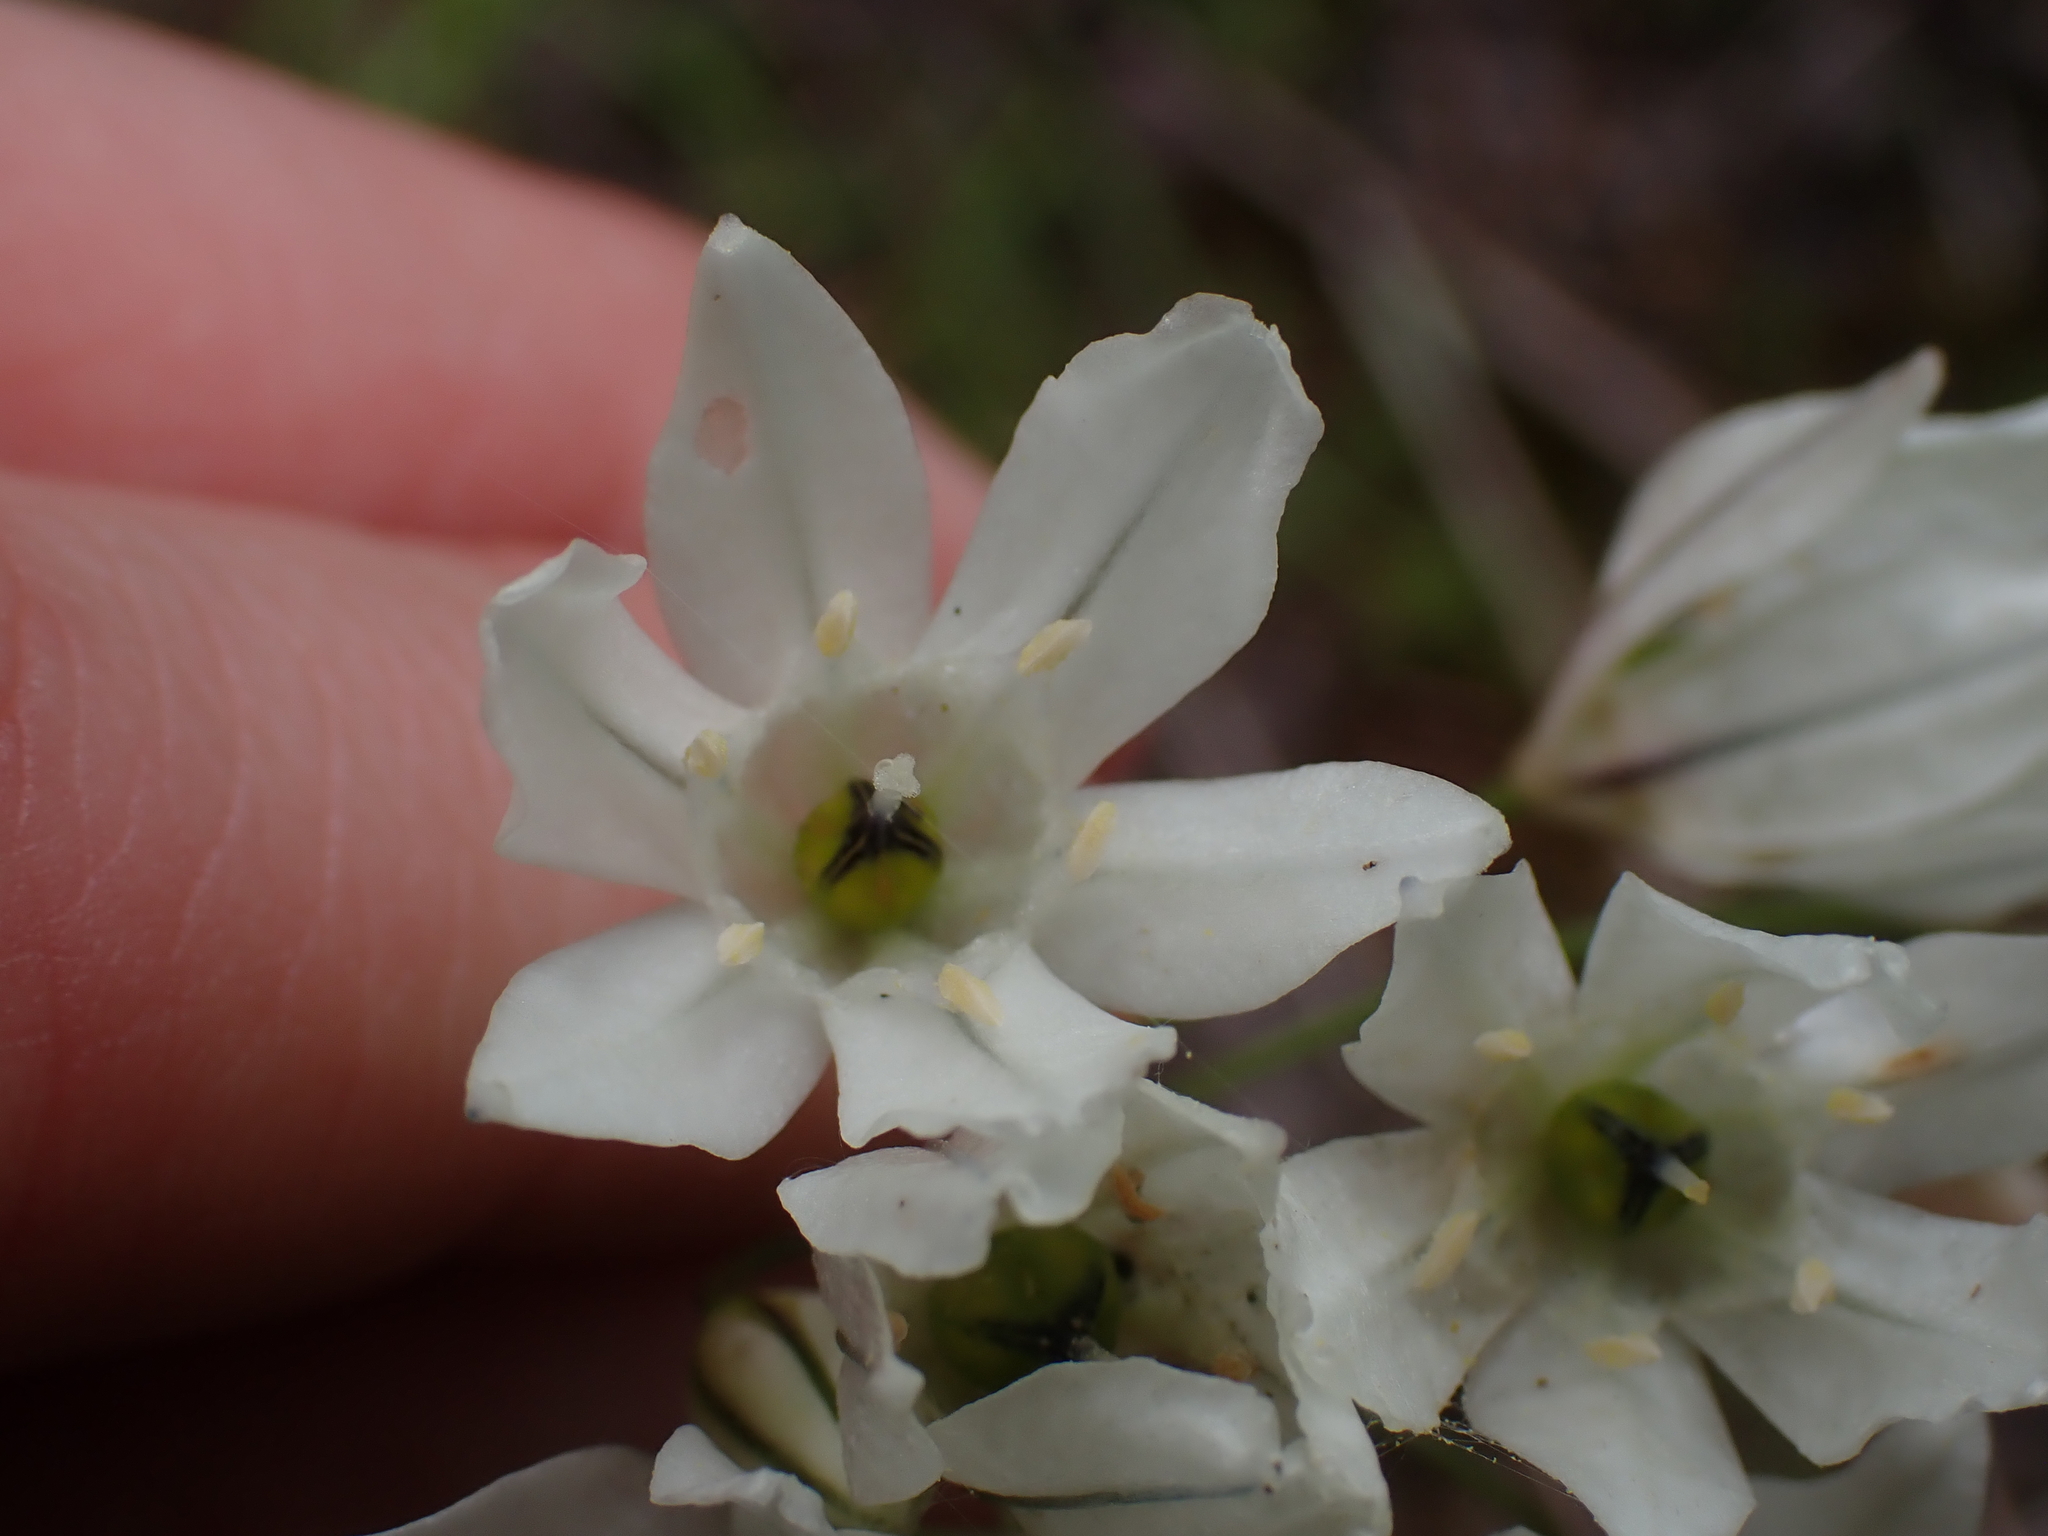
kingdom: Plantae
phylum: Tracheophyta
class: Liliopsida
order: Asparagales
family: Asparagaceae
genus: Triteleia
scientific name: Triteleia hyacinthina
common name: White brodiaea
